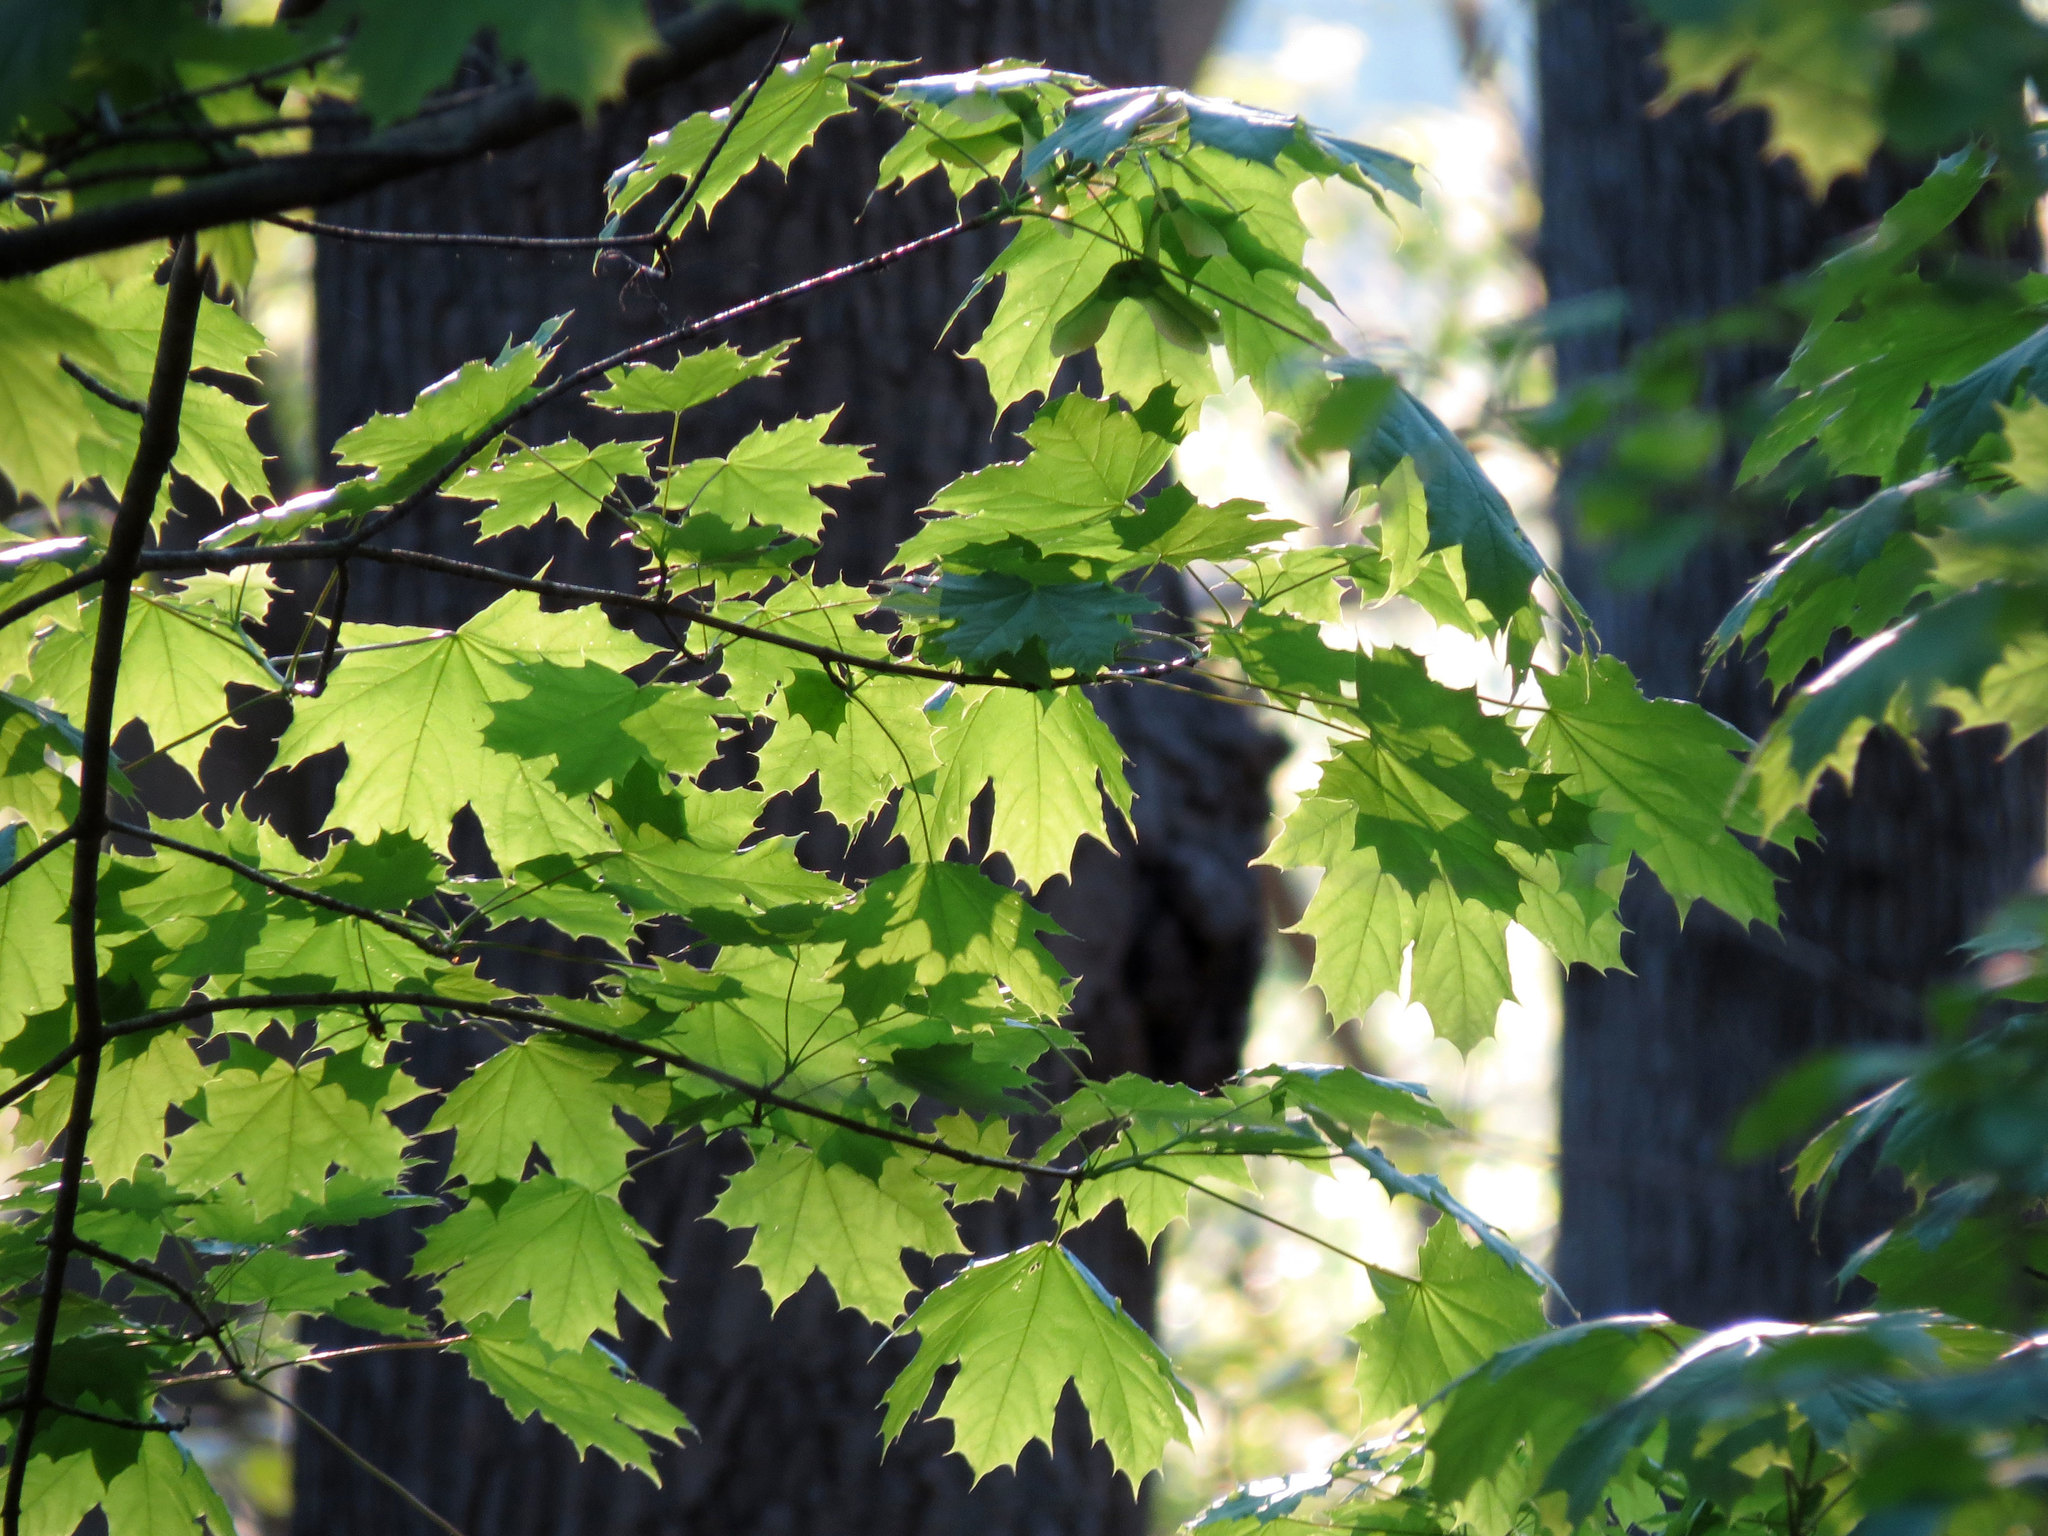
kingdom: Plantae
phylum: Tracheophyta
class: Magnoliopsida
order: Sapindales
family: Sapindaceae
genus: Acer
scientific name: Acer platanoides
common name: Norway maple
